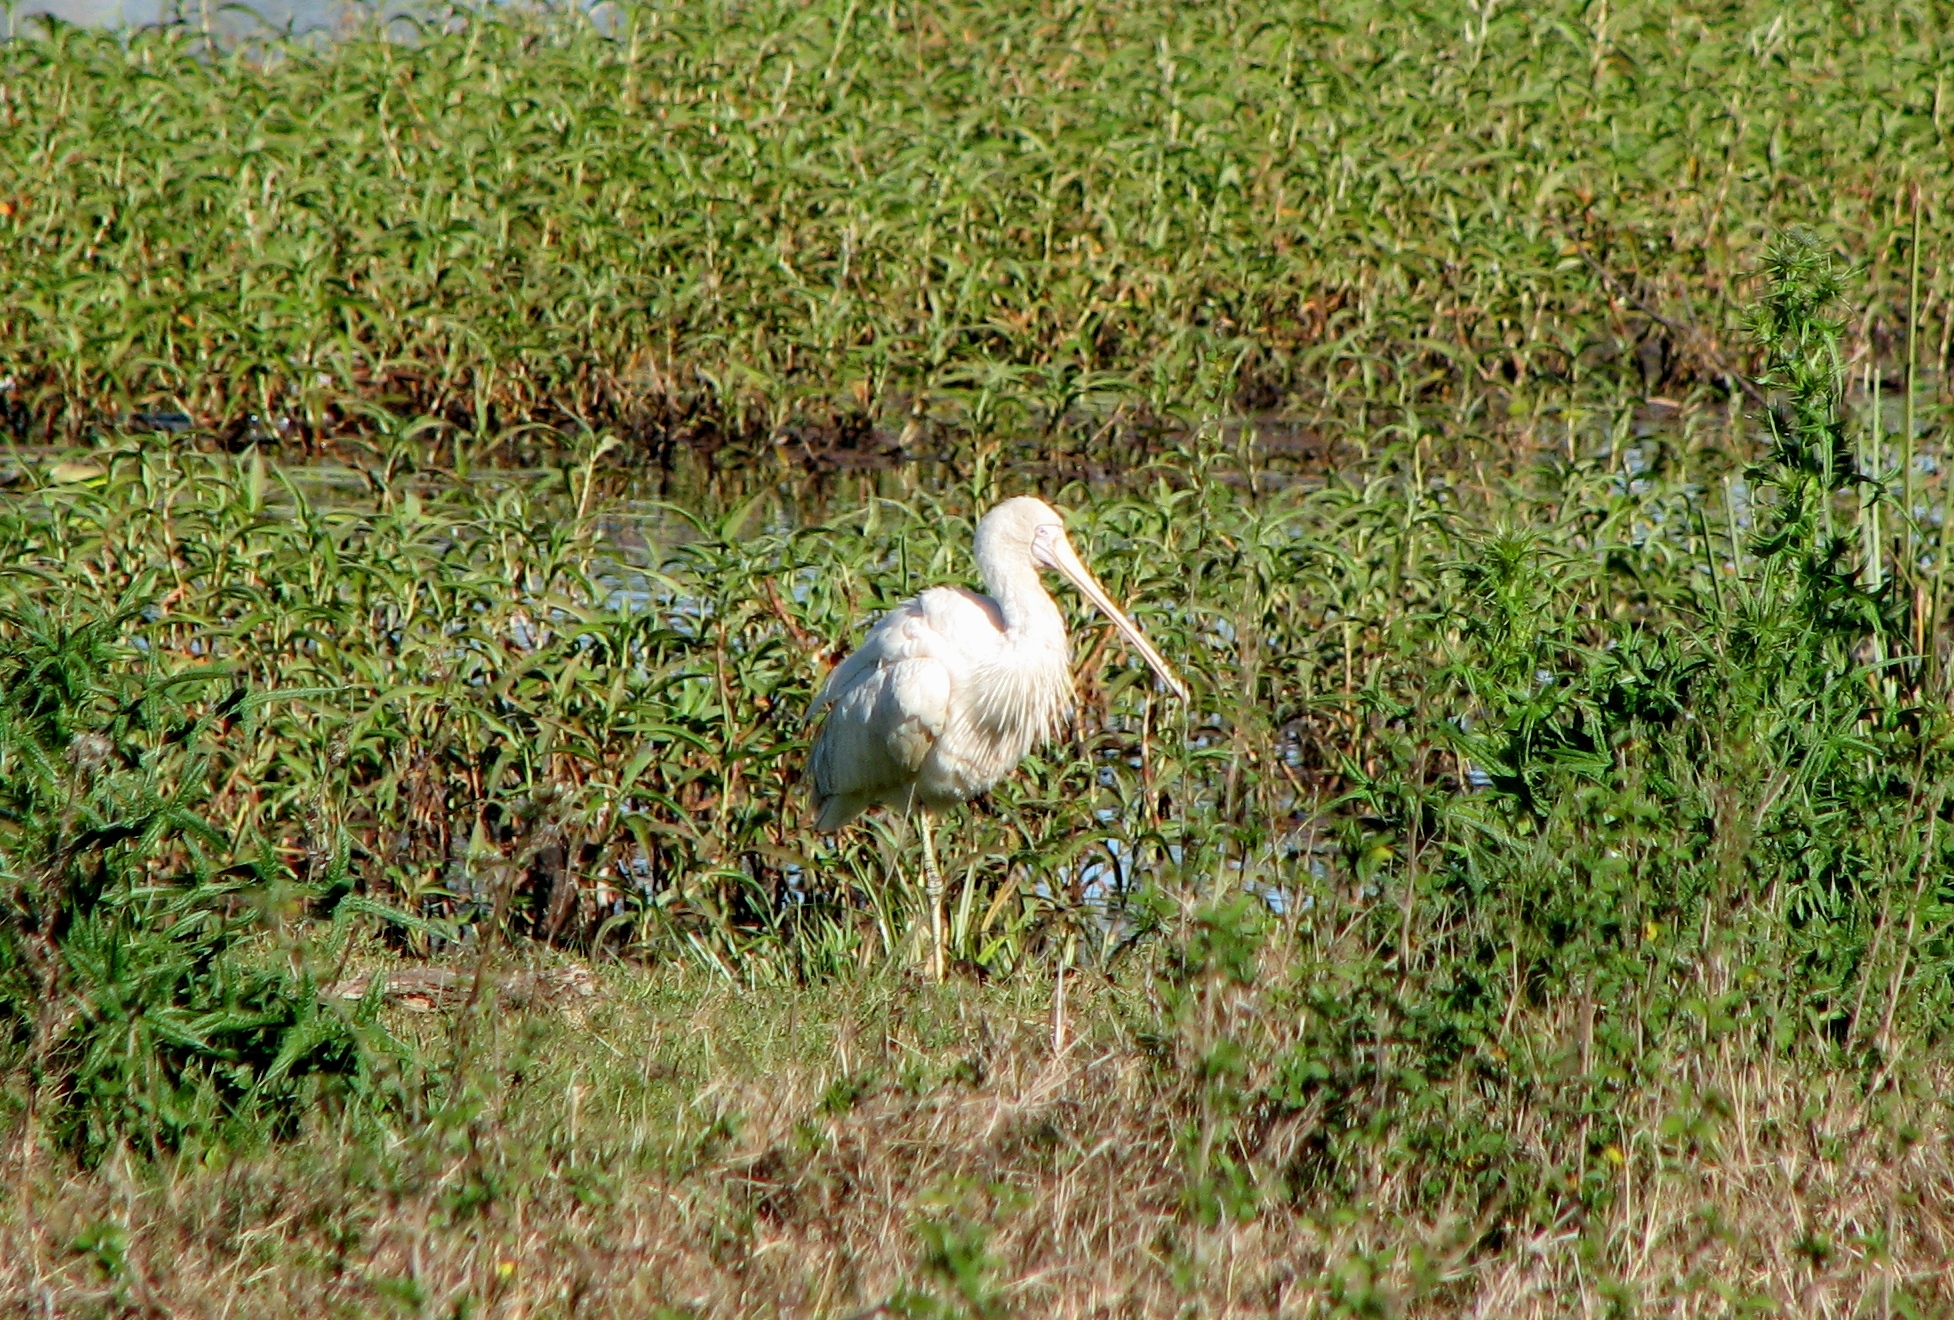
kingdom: Animalia
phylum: Chordata
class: Aves
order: Pelecaniformes
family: Threskiornithidae
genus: Platalea
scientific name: Platalea flavipes
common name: Yellow-billed spoonbill
